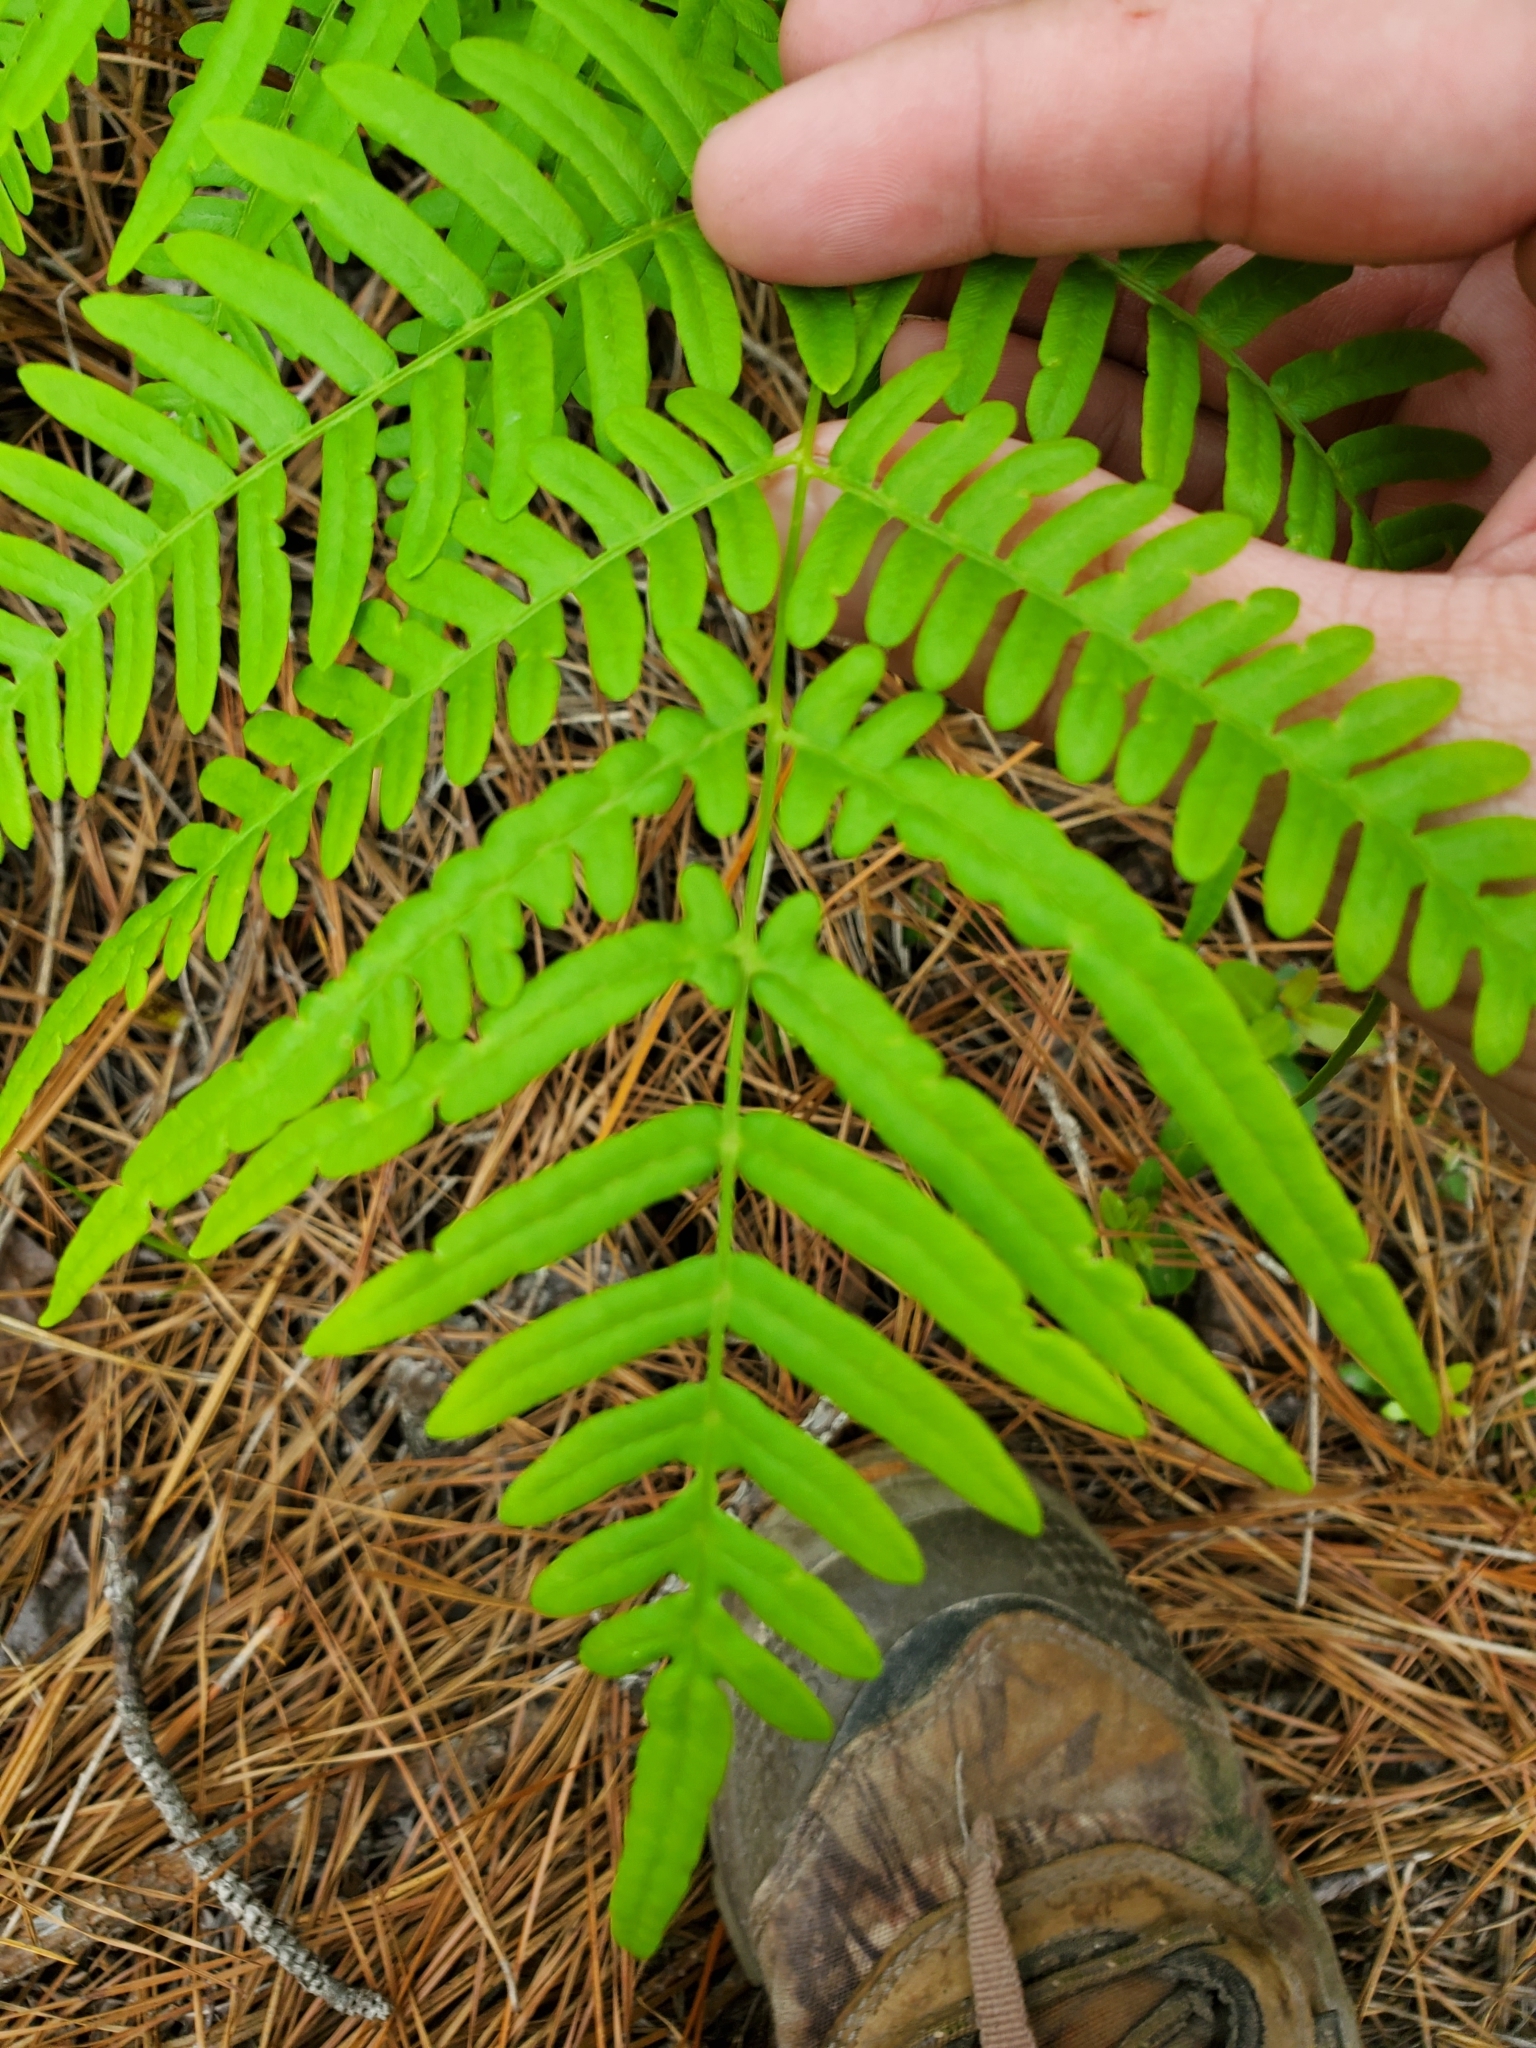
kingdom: Plantae
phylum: Tracheophyta
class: Polypodiopsida
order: Polypodiales
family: Dennstaedtiaceae
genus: Pteridium
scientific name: Pteridium aquilinum
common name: Bracken
